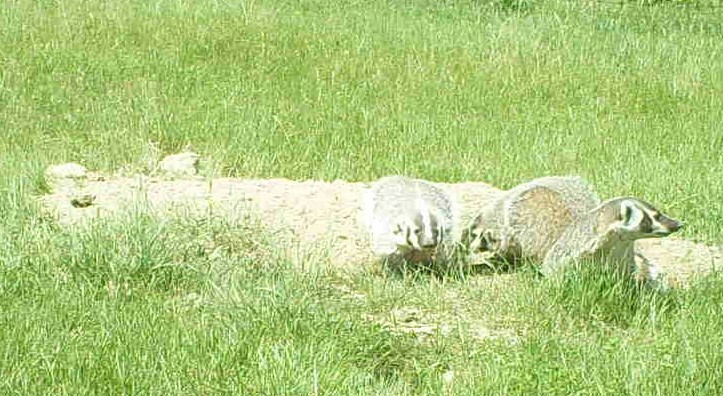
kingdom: Animalia
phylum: Chordata
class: Mammalia
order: Carnivora
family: Mustelidae
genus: Taxidea
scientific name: Taxidea taxus
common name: American badger
